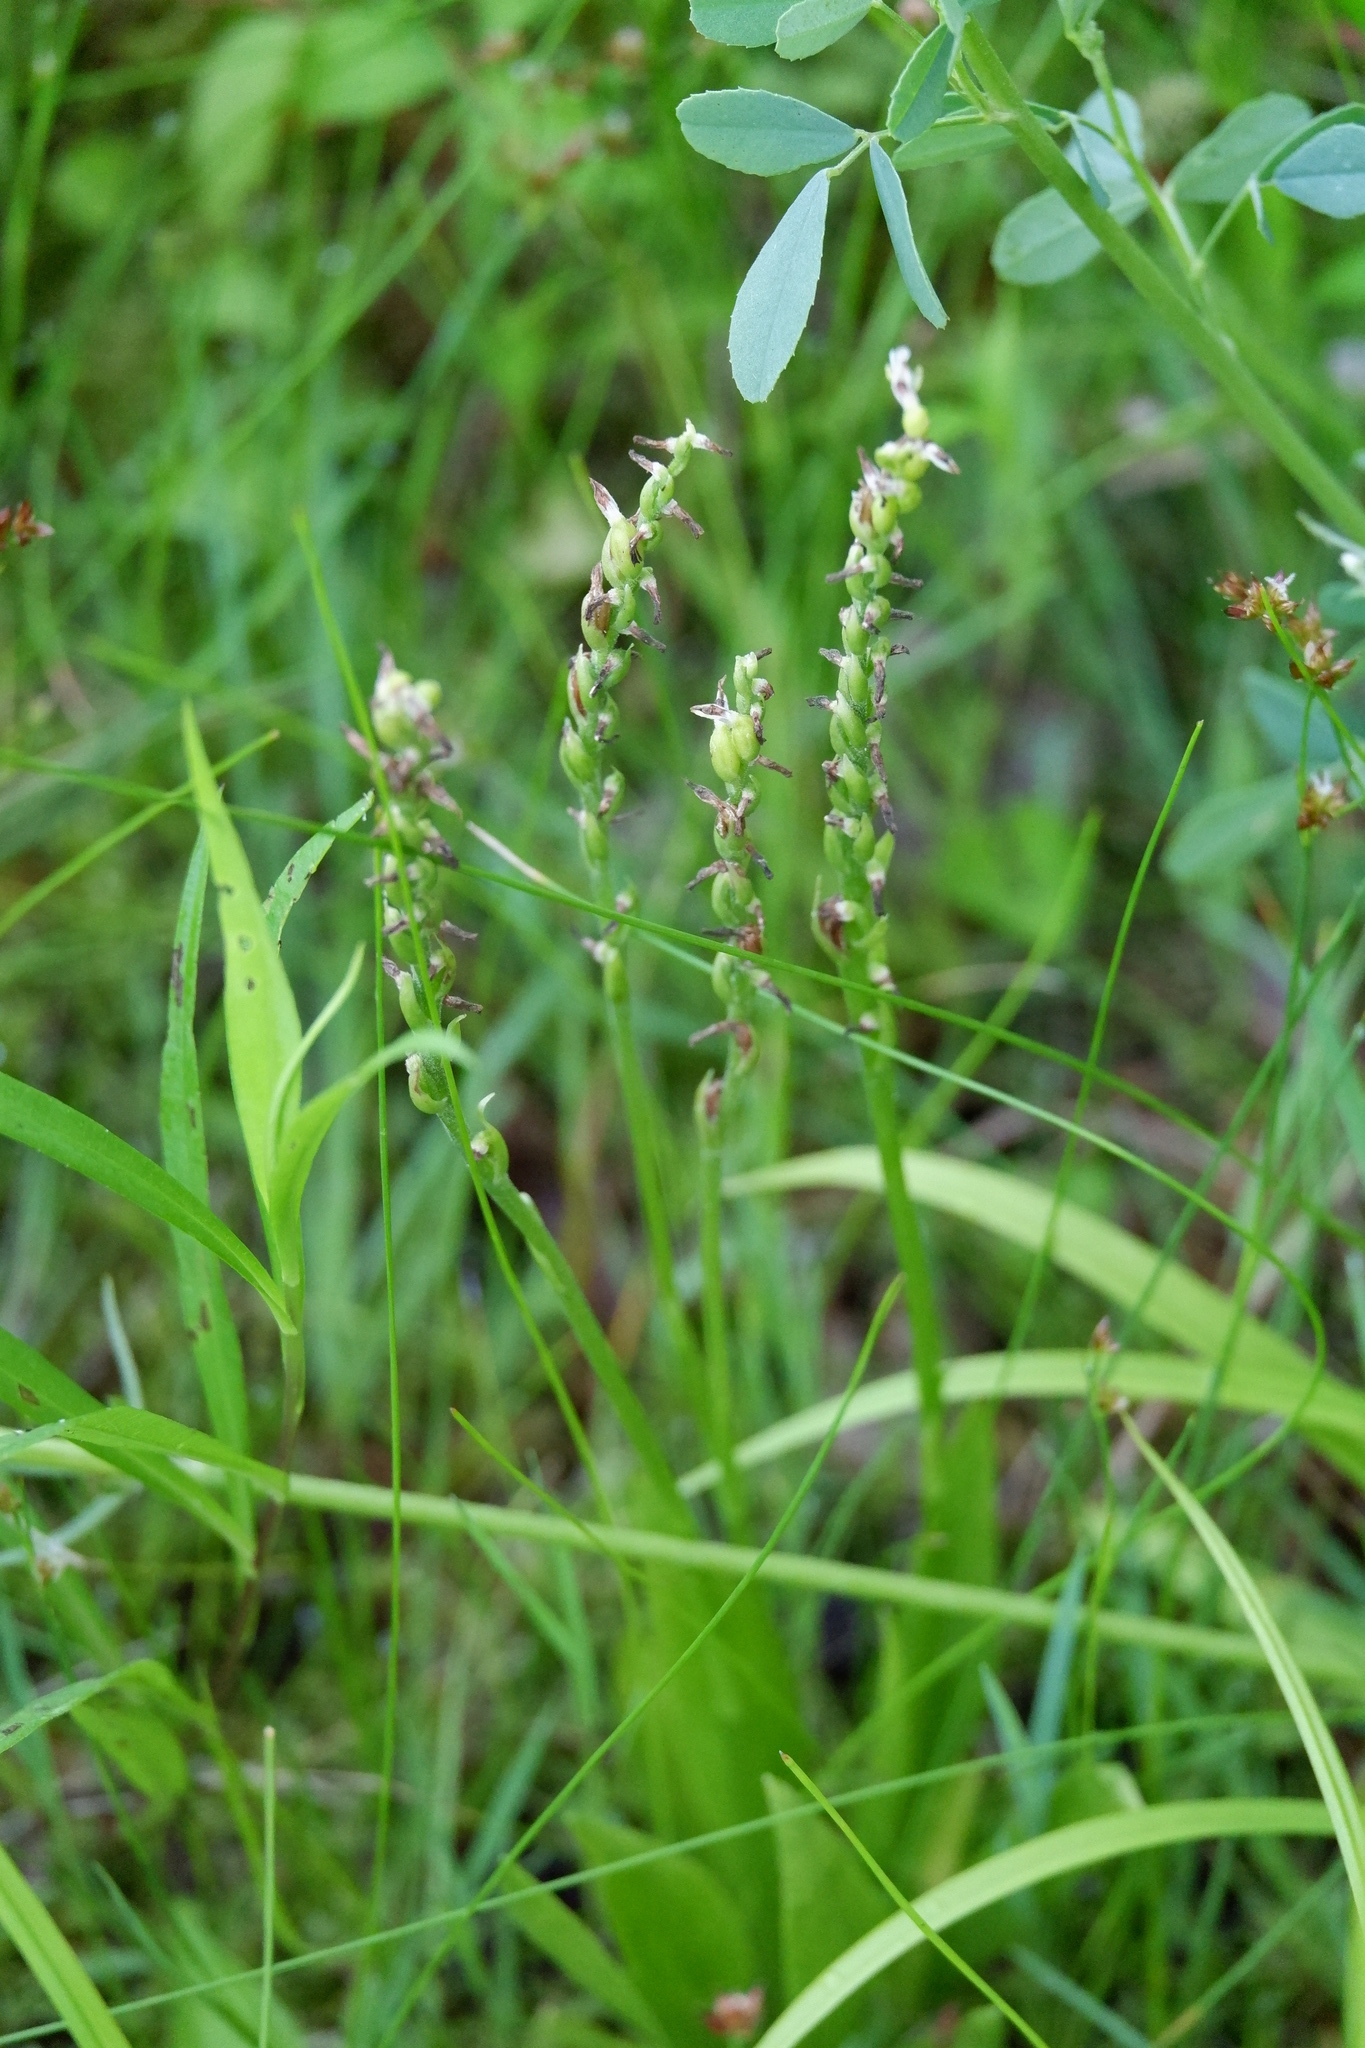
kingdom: Plantae
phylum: Tracheophyta
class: Liliopsida
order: Asparagales
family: Orchidaceae
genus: Spiranthes
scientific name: Spiranthes lucida
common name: Broad-leaved ladies'-tresses
